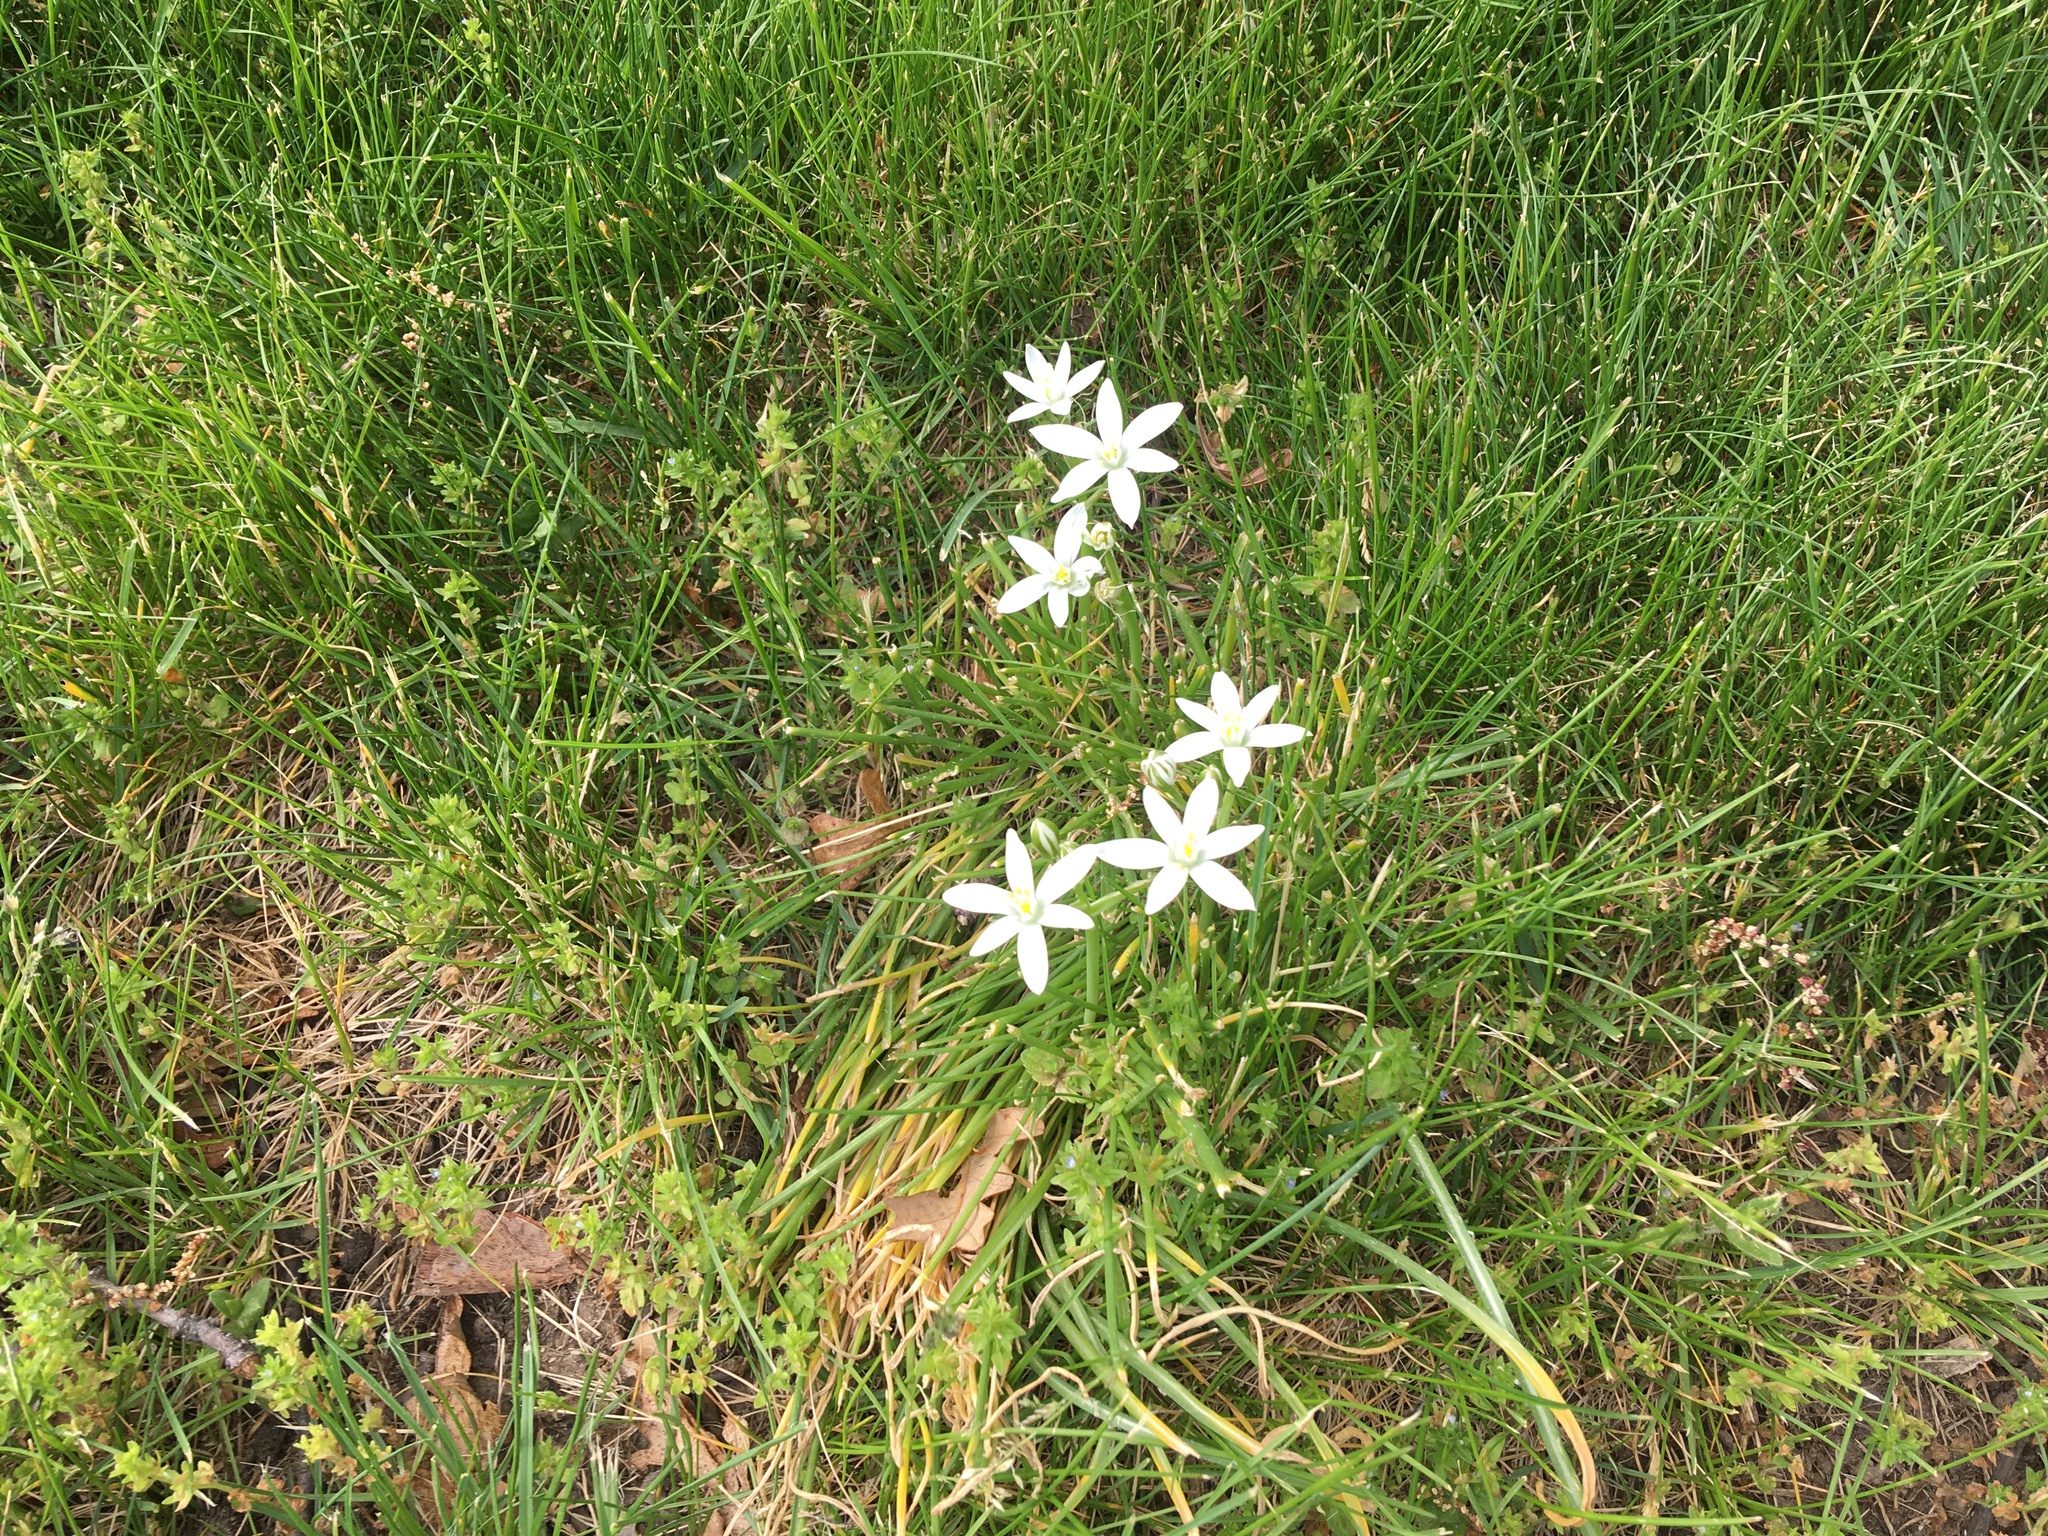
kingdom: Plantae
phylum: Tracheophyta
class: Liliopsida
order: Asparagales
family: Asparagaceae
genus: Ornithogalum
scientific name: Ornithogalum umbellatum
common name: Garden star-of-bethlehem
